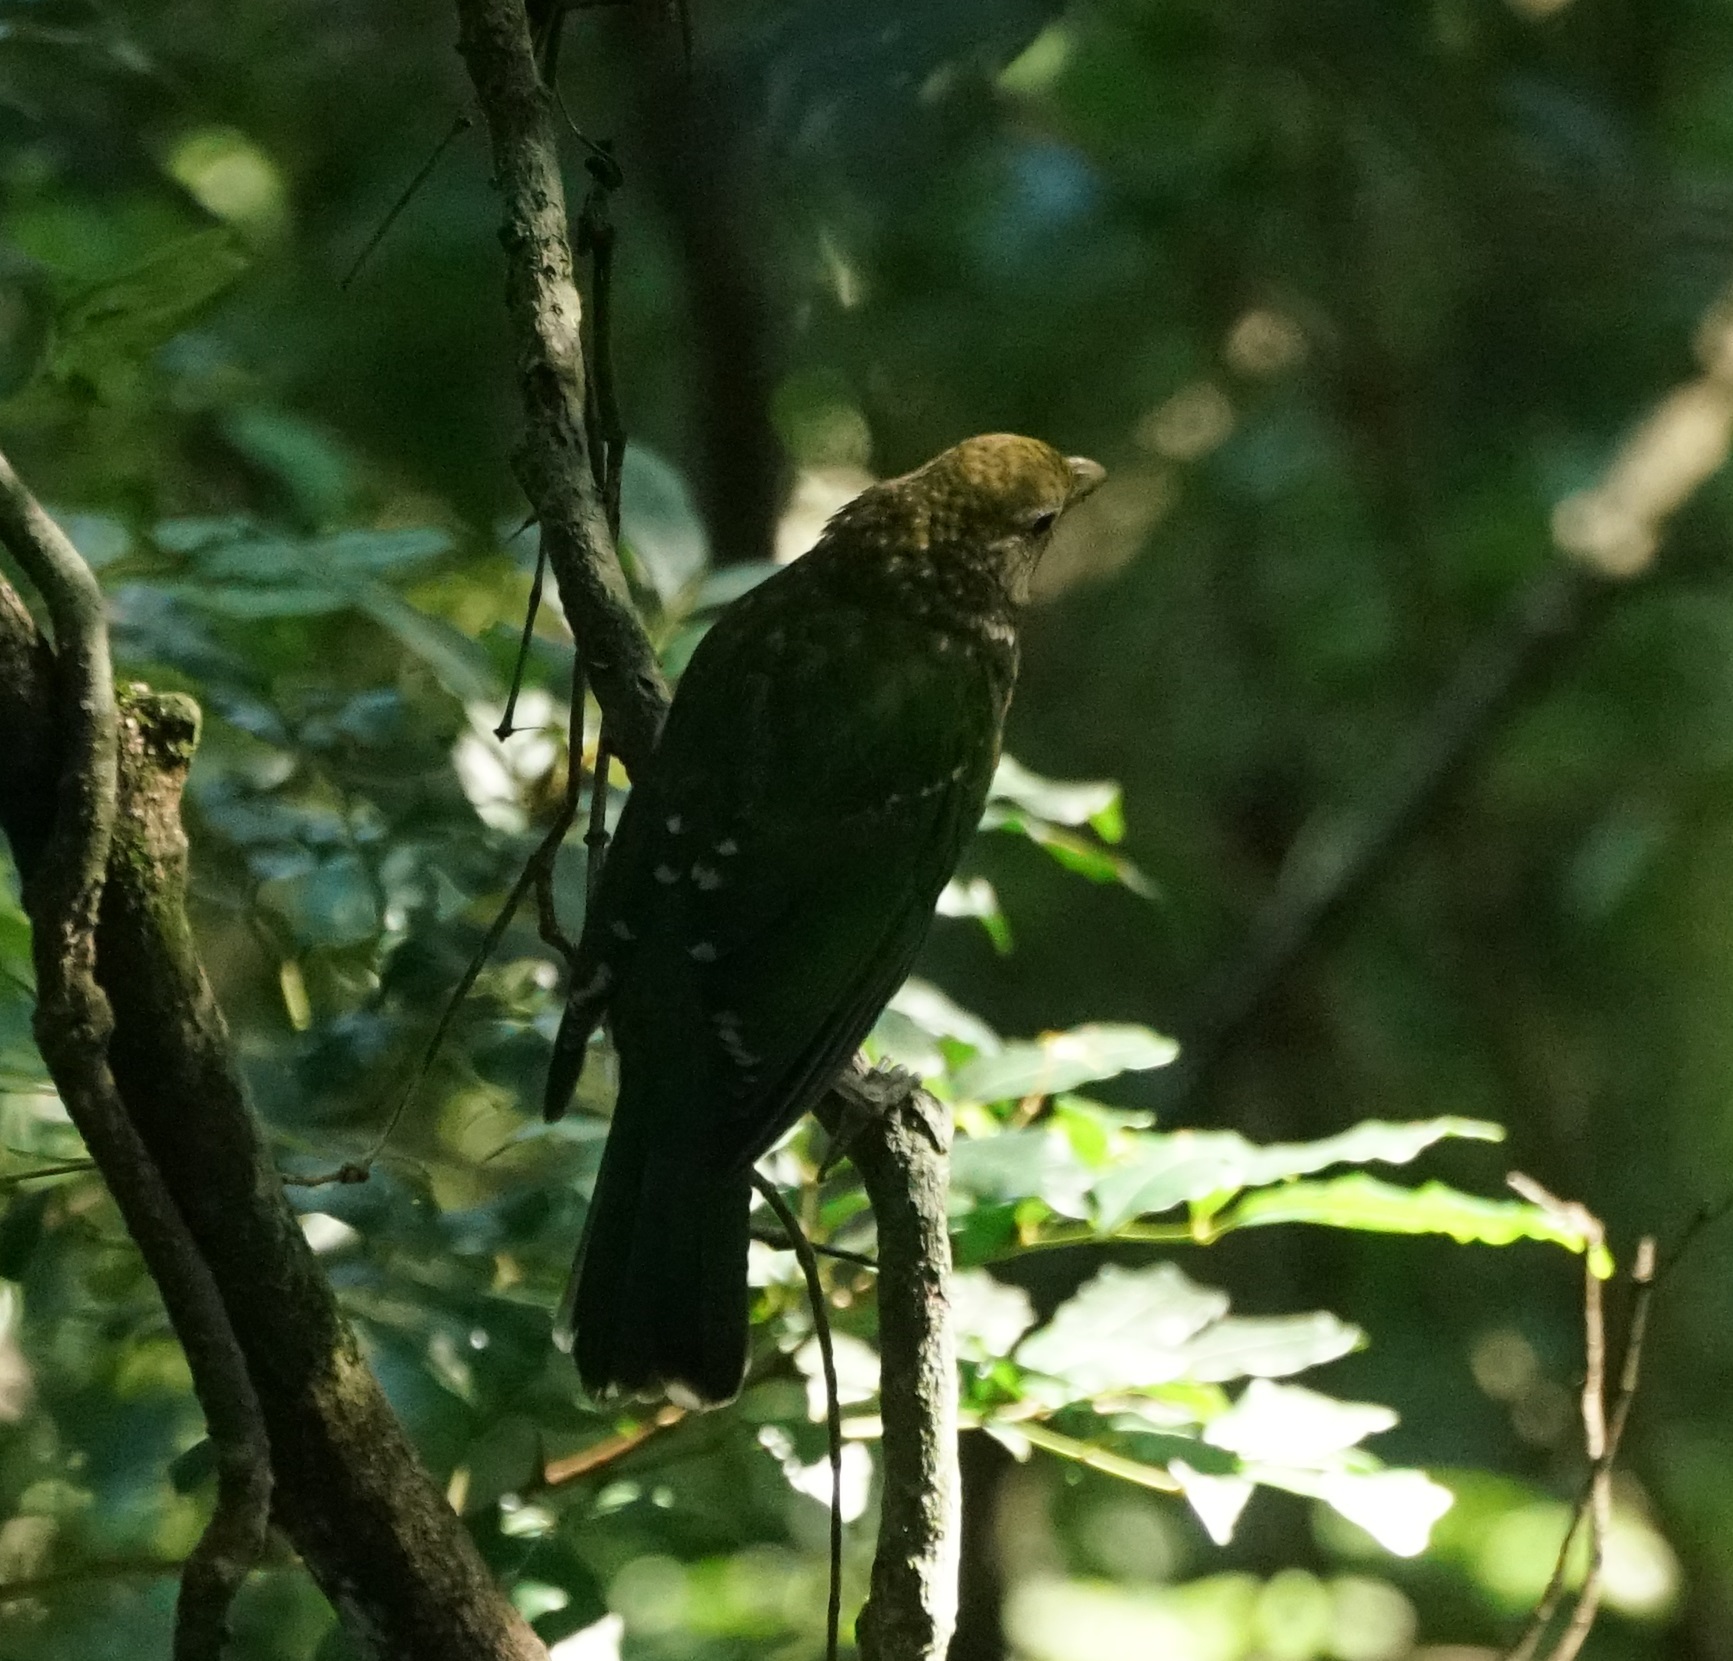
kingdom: Animalia
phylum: Chordata
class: Aves
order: Passeriformes
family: Ptilonorhynchidae
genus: Ailuroedus
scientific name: Ailuroedus crassirostris
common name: Green catbird
